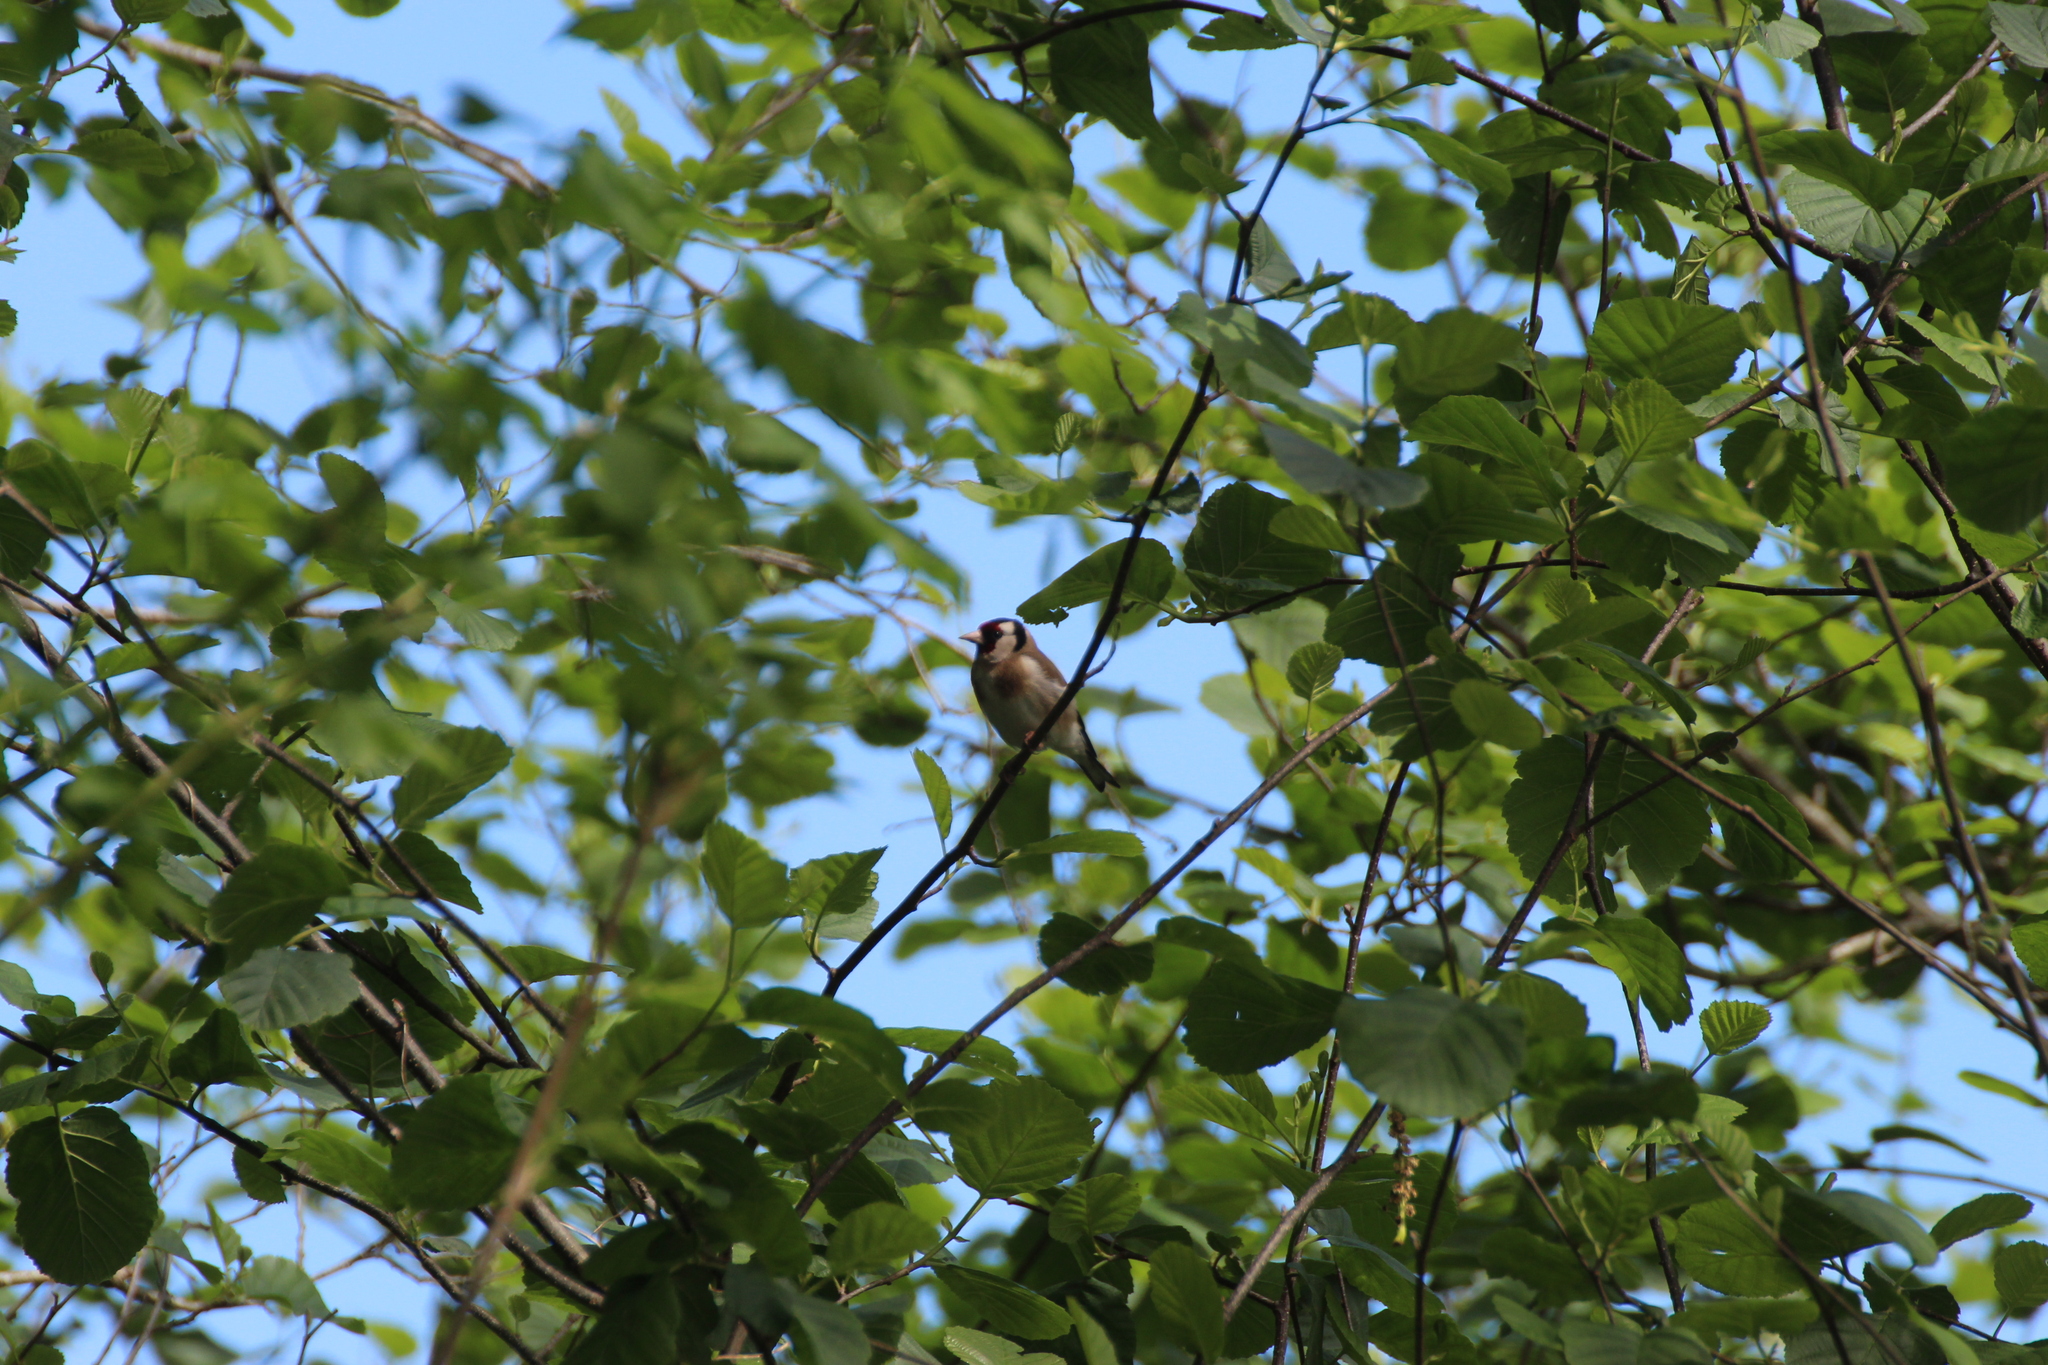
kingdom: Animalia
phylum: Chordata
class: Aves
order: Passeriformes
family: Fringillidae
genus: Carduelis
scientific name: Carduelis carduelis
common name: European goldfinch
